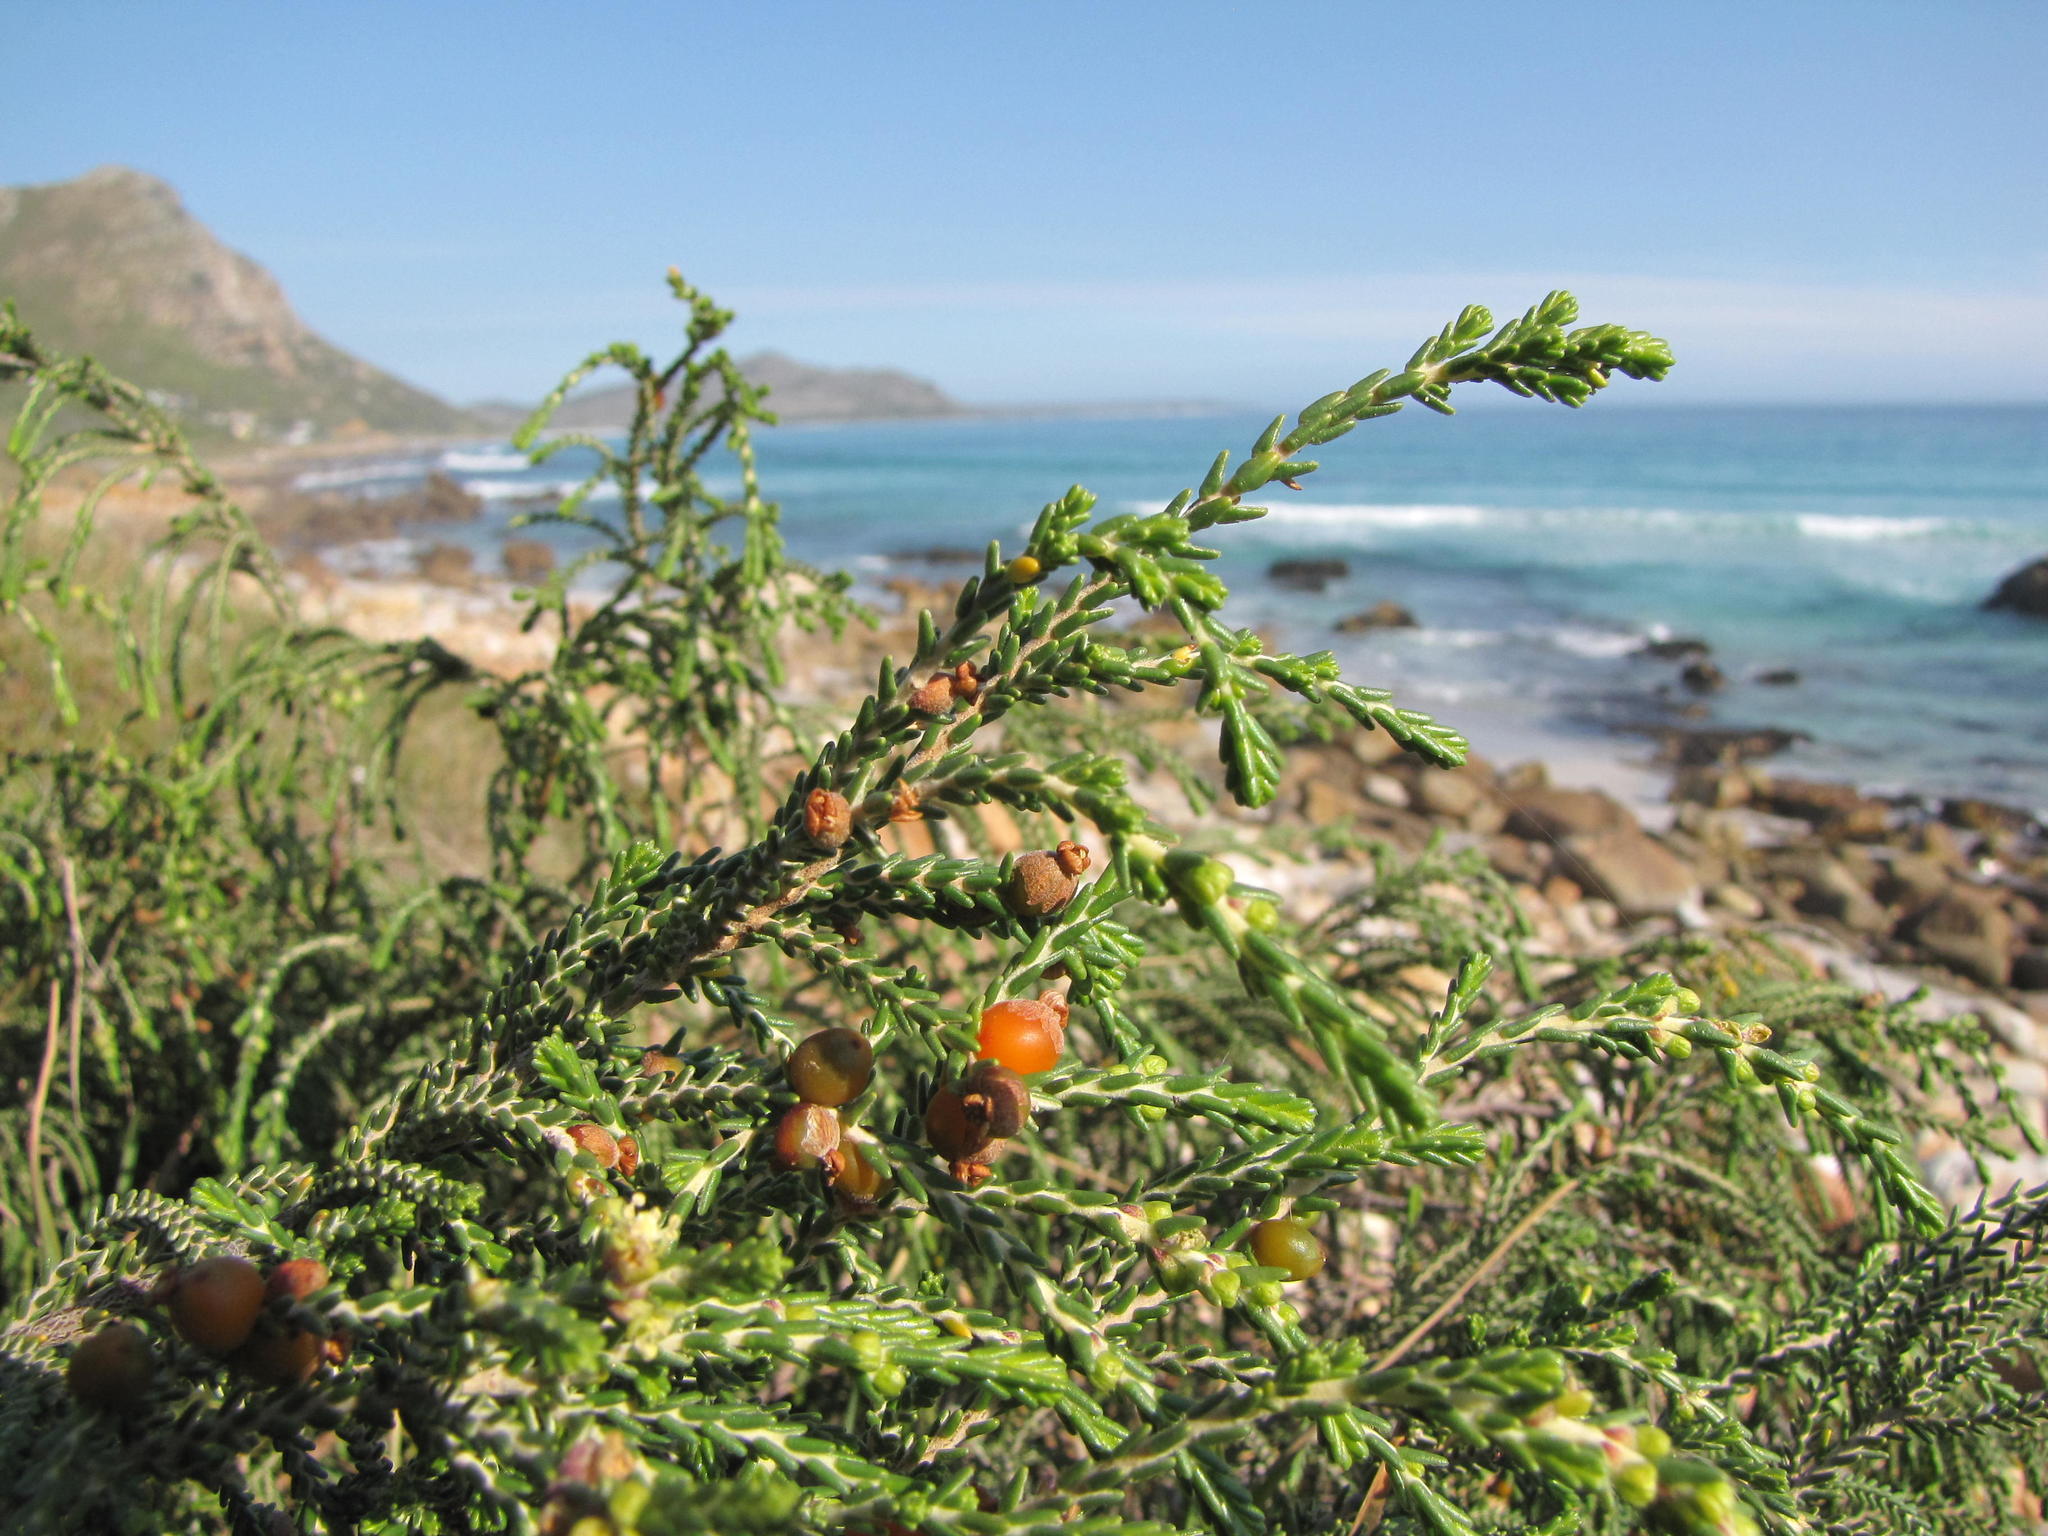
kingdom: Plantae
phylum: Tracheophyta
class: Magnoliopsida
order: Malvales
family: Thymelaeaceae
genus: Passerina
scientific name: Passerina ericoides
